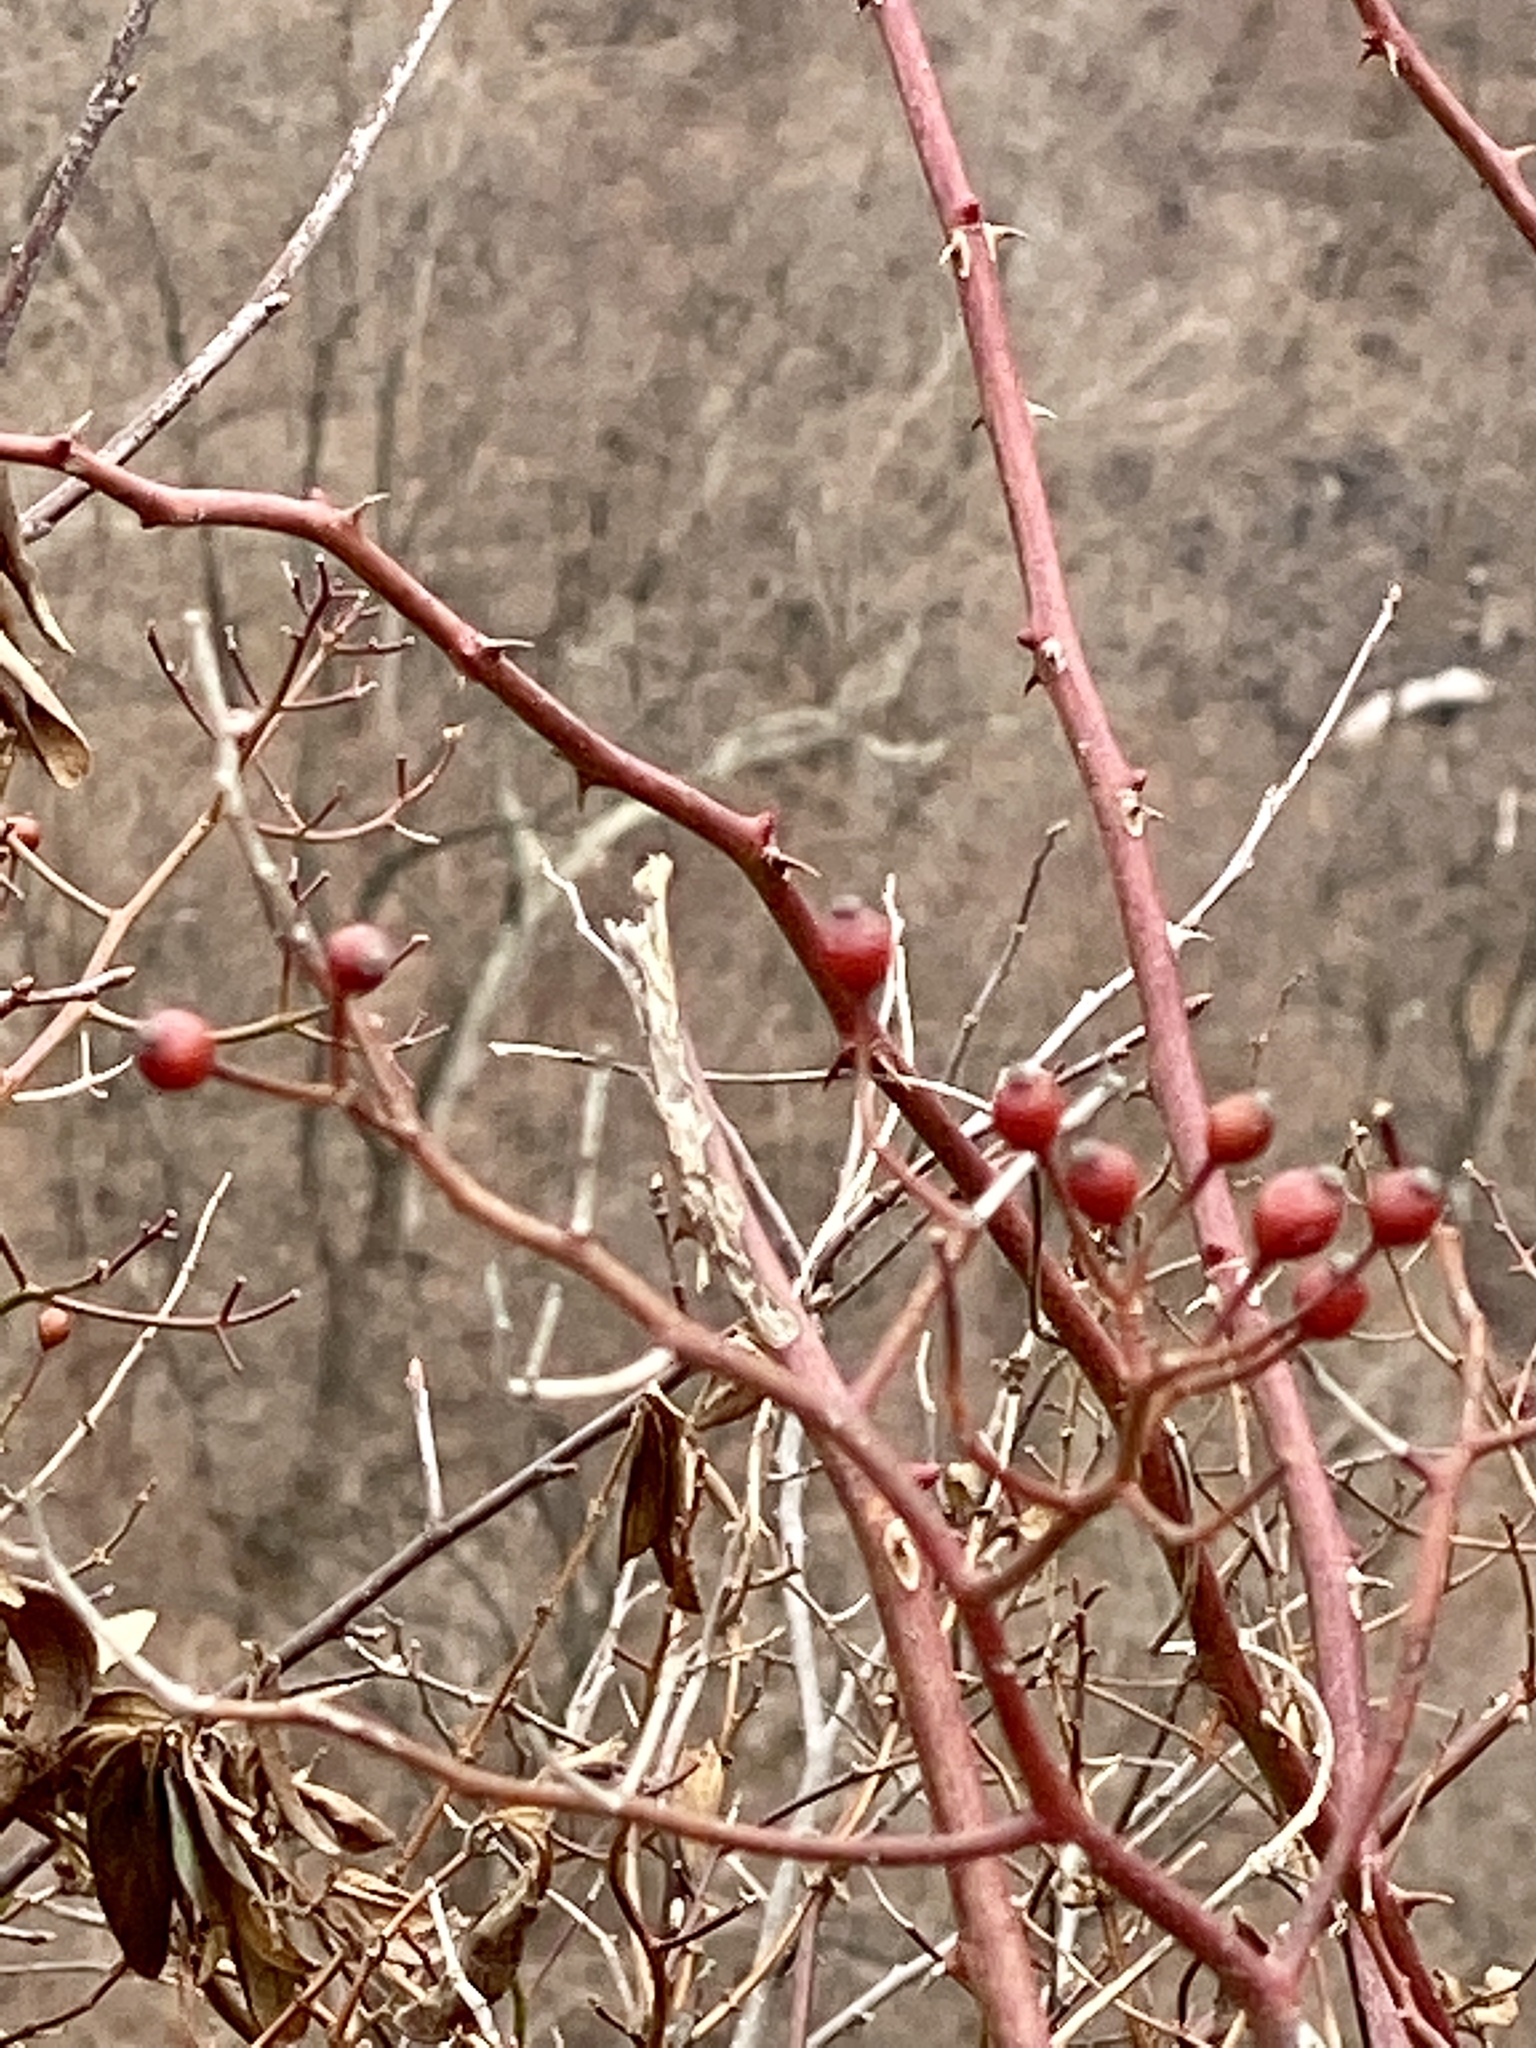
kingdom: Plantae
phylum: Tracheophyta
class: Magnoliopsida
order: Rosales
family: Rosaceae
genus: Rosa
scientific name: Rosa multiflora
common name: Multiflora rose
